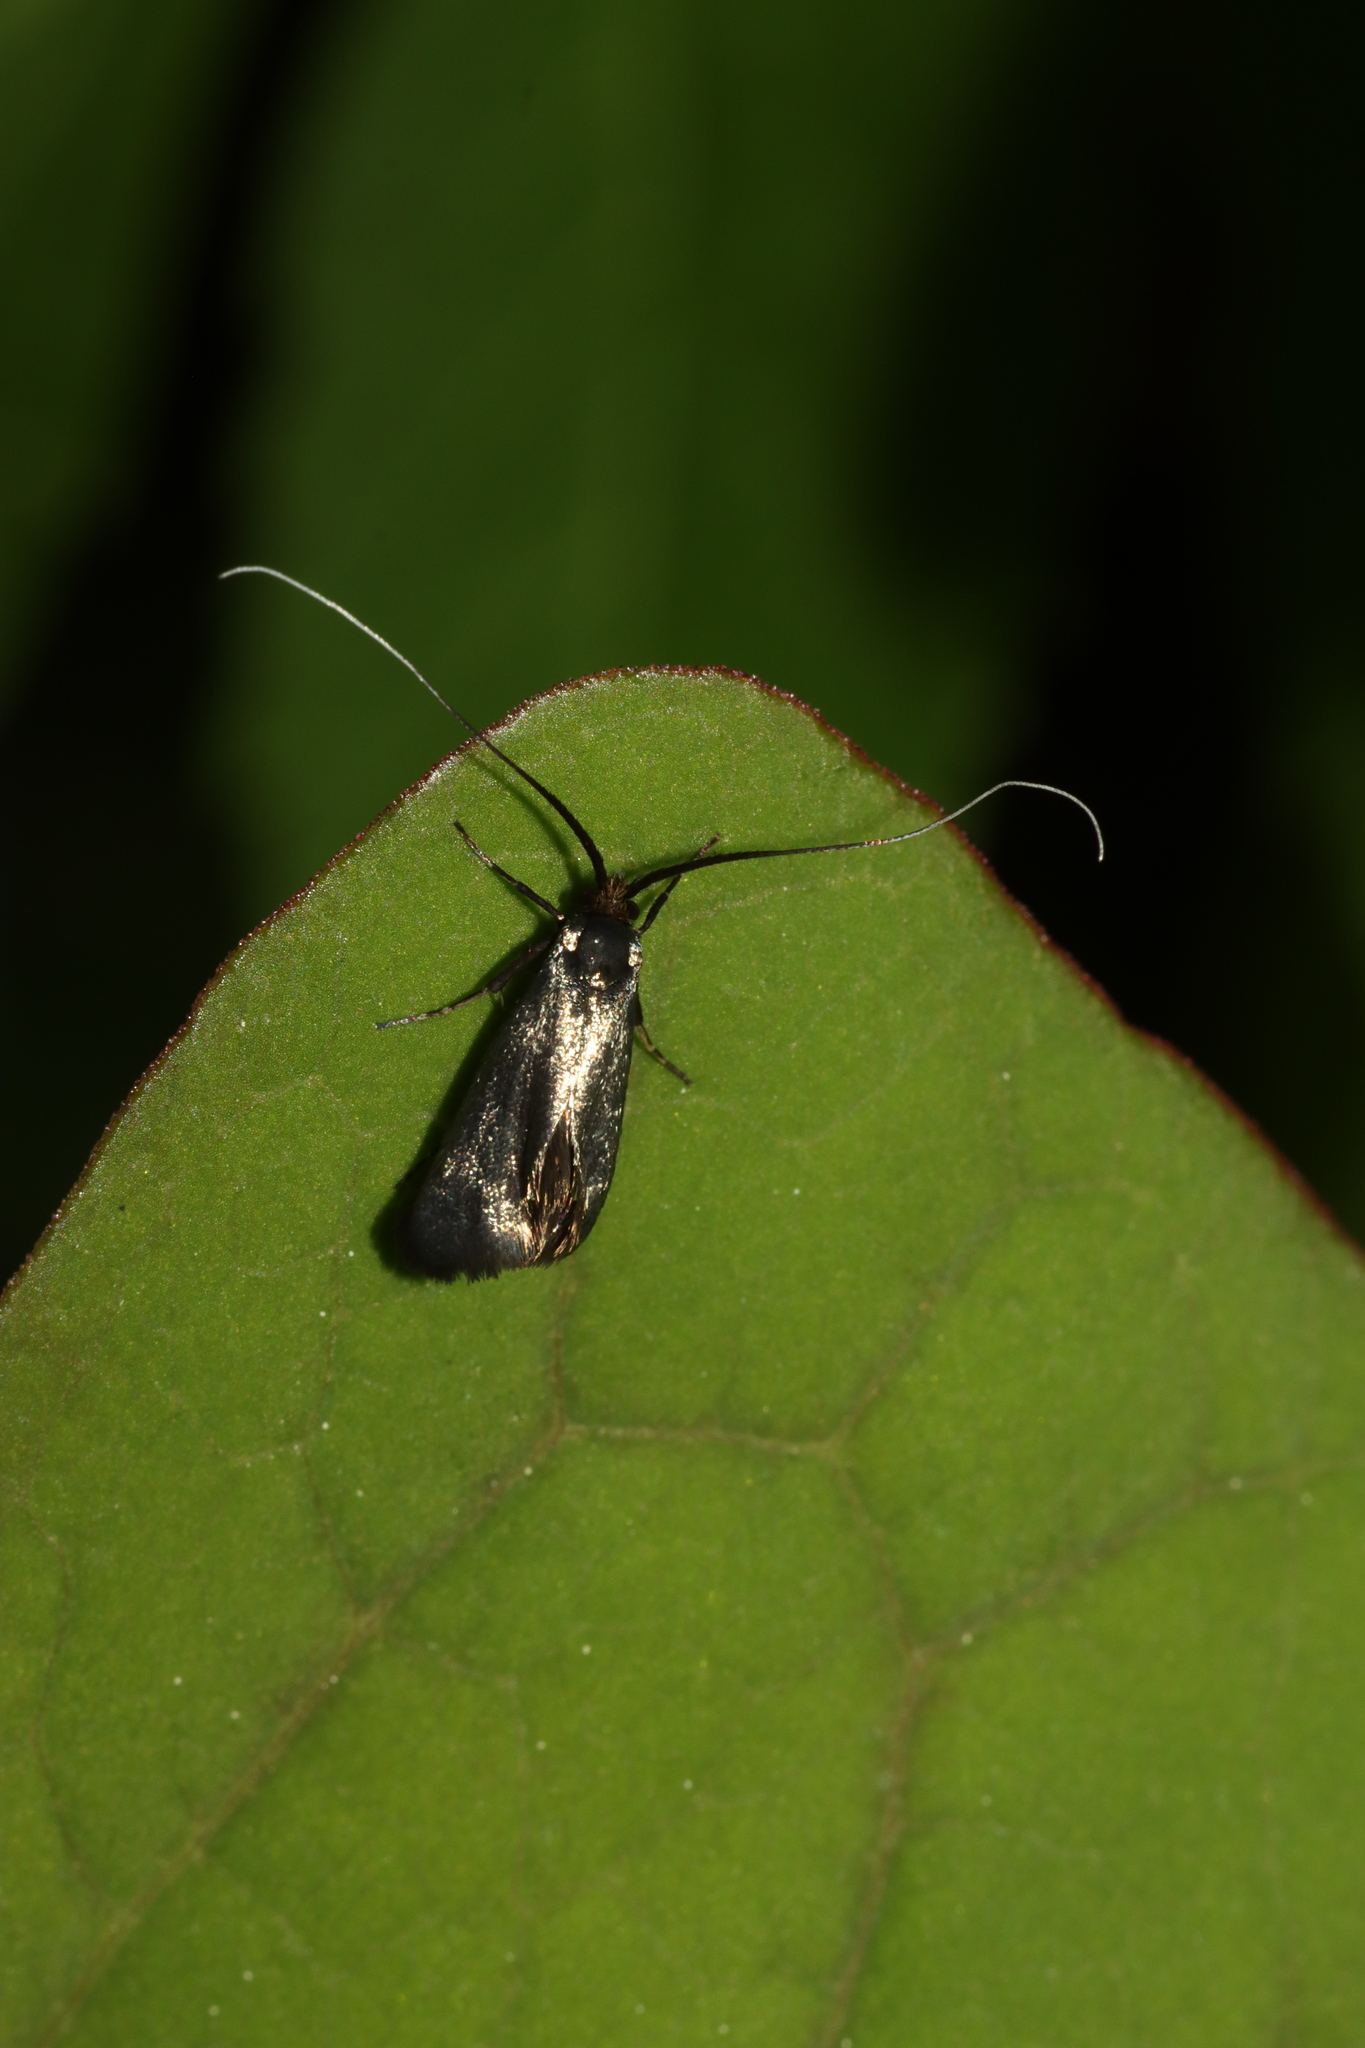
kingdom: Animalia
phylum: Arthropoda
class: Insecta
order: Lepidoptera
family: Adelidae
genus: Adela
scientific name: Adela viridella
